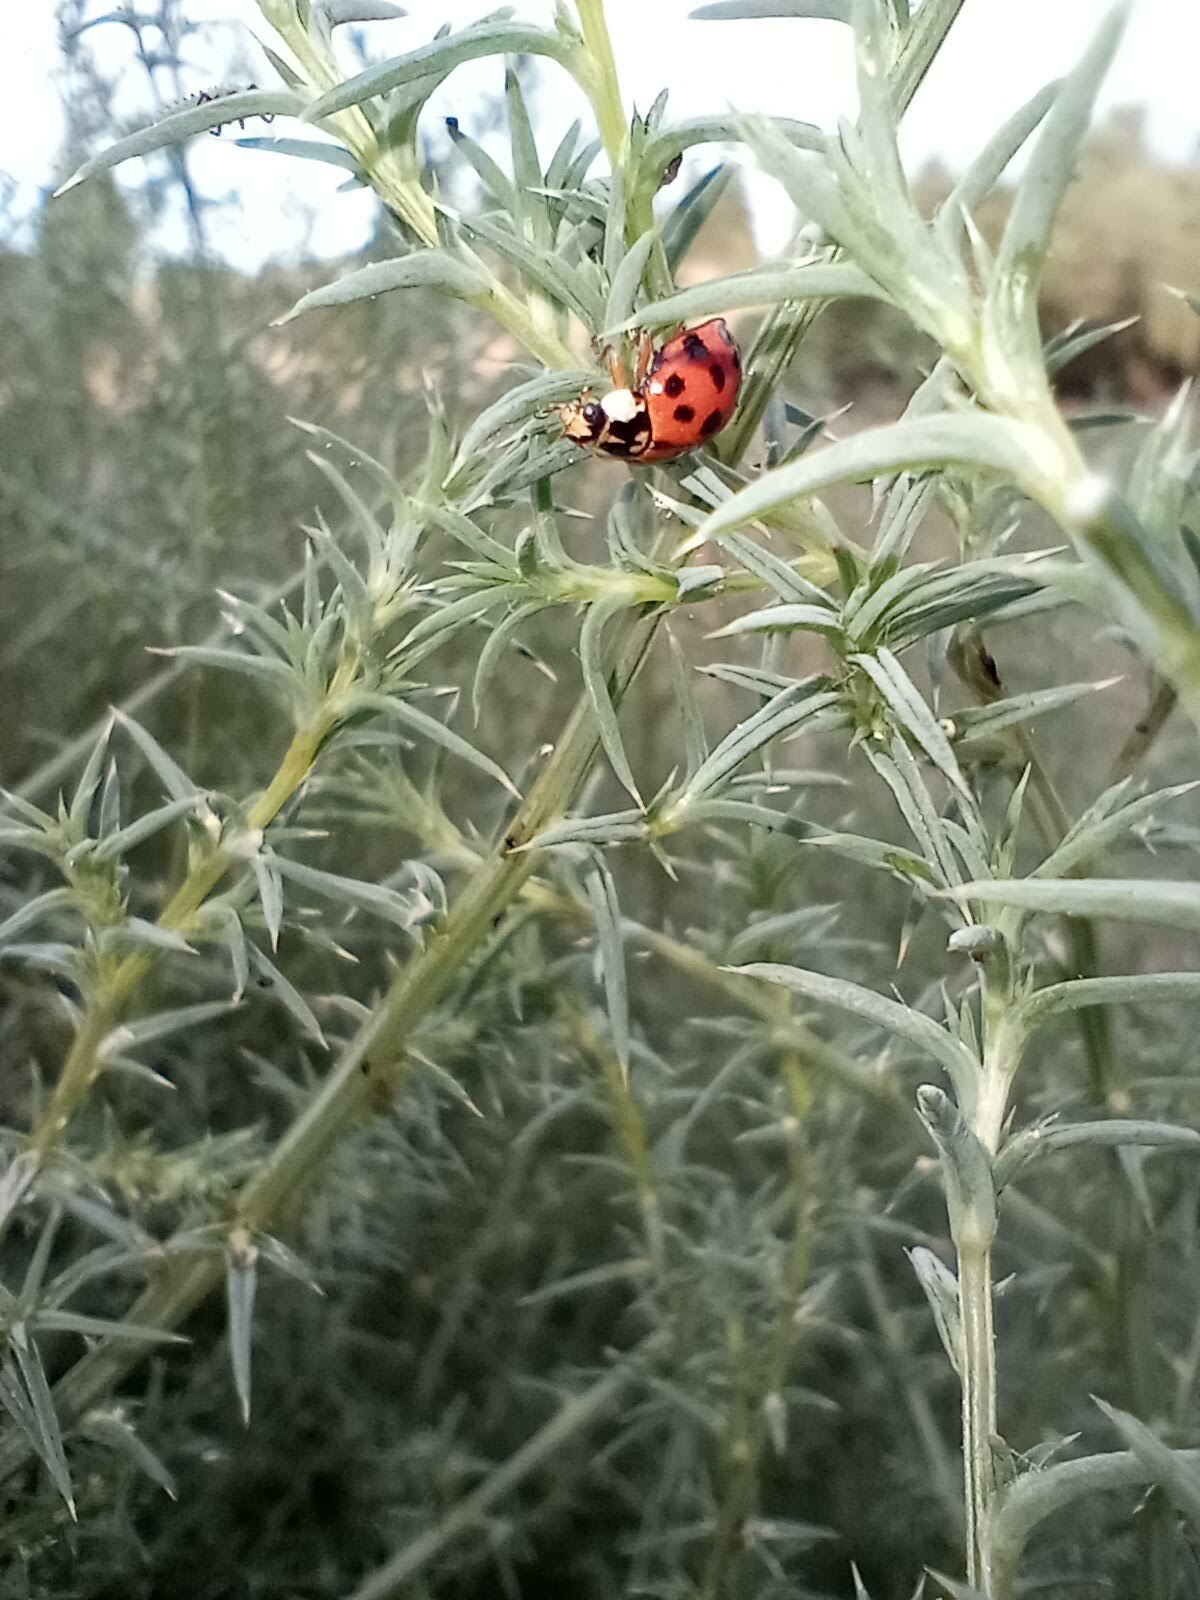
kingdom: Animalia
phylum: Arthropoda
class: Insecta
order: Coleoptera
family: Coccinellidae
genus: Harmonia
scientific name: Harmonia axyridis
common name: Harlequin ladybird
